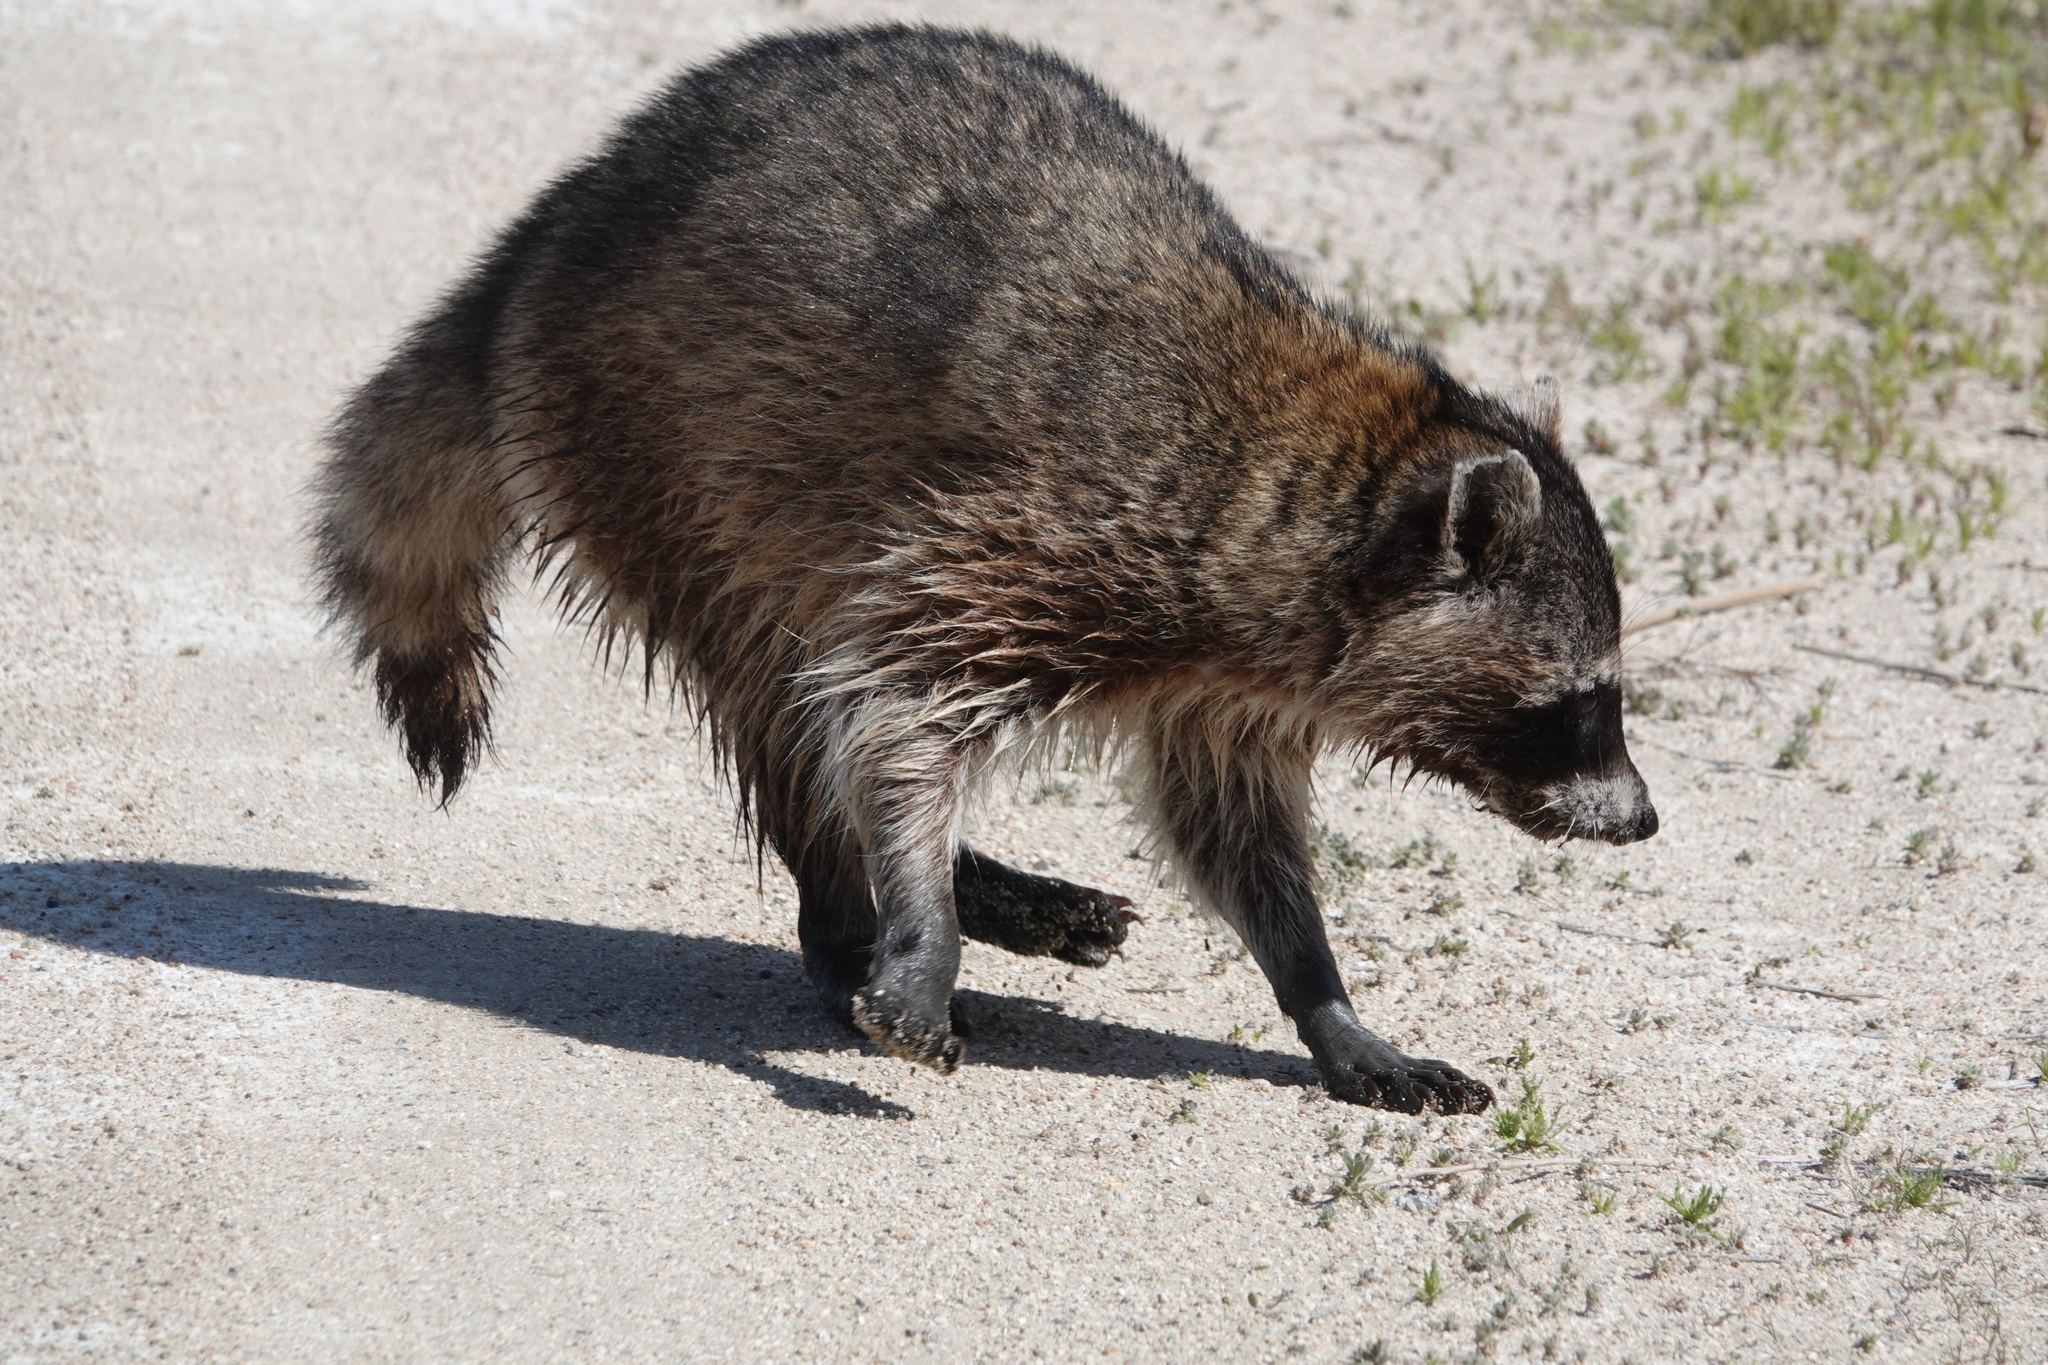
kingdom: Animalia
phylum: Chordata
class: Mammalia
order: Carnivora
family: Procyonidae
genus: Procyon
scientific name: Procyon lotor
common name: Raccoon
